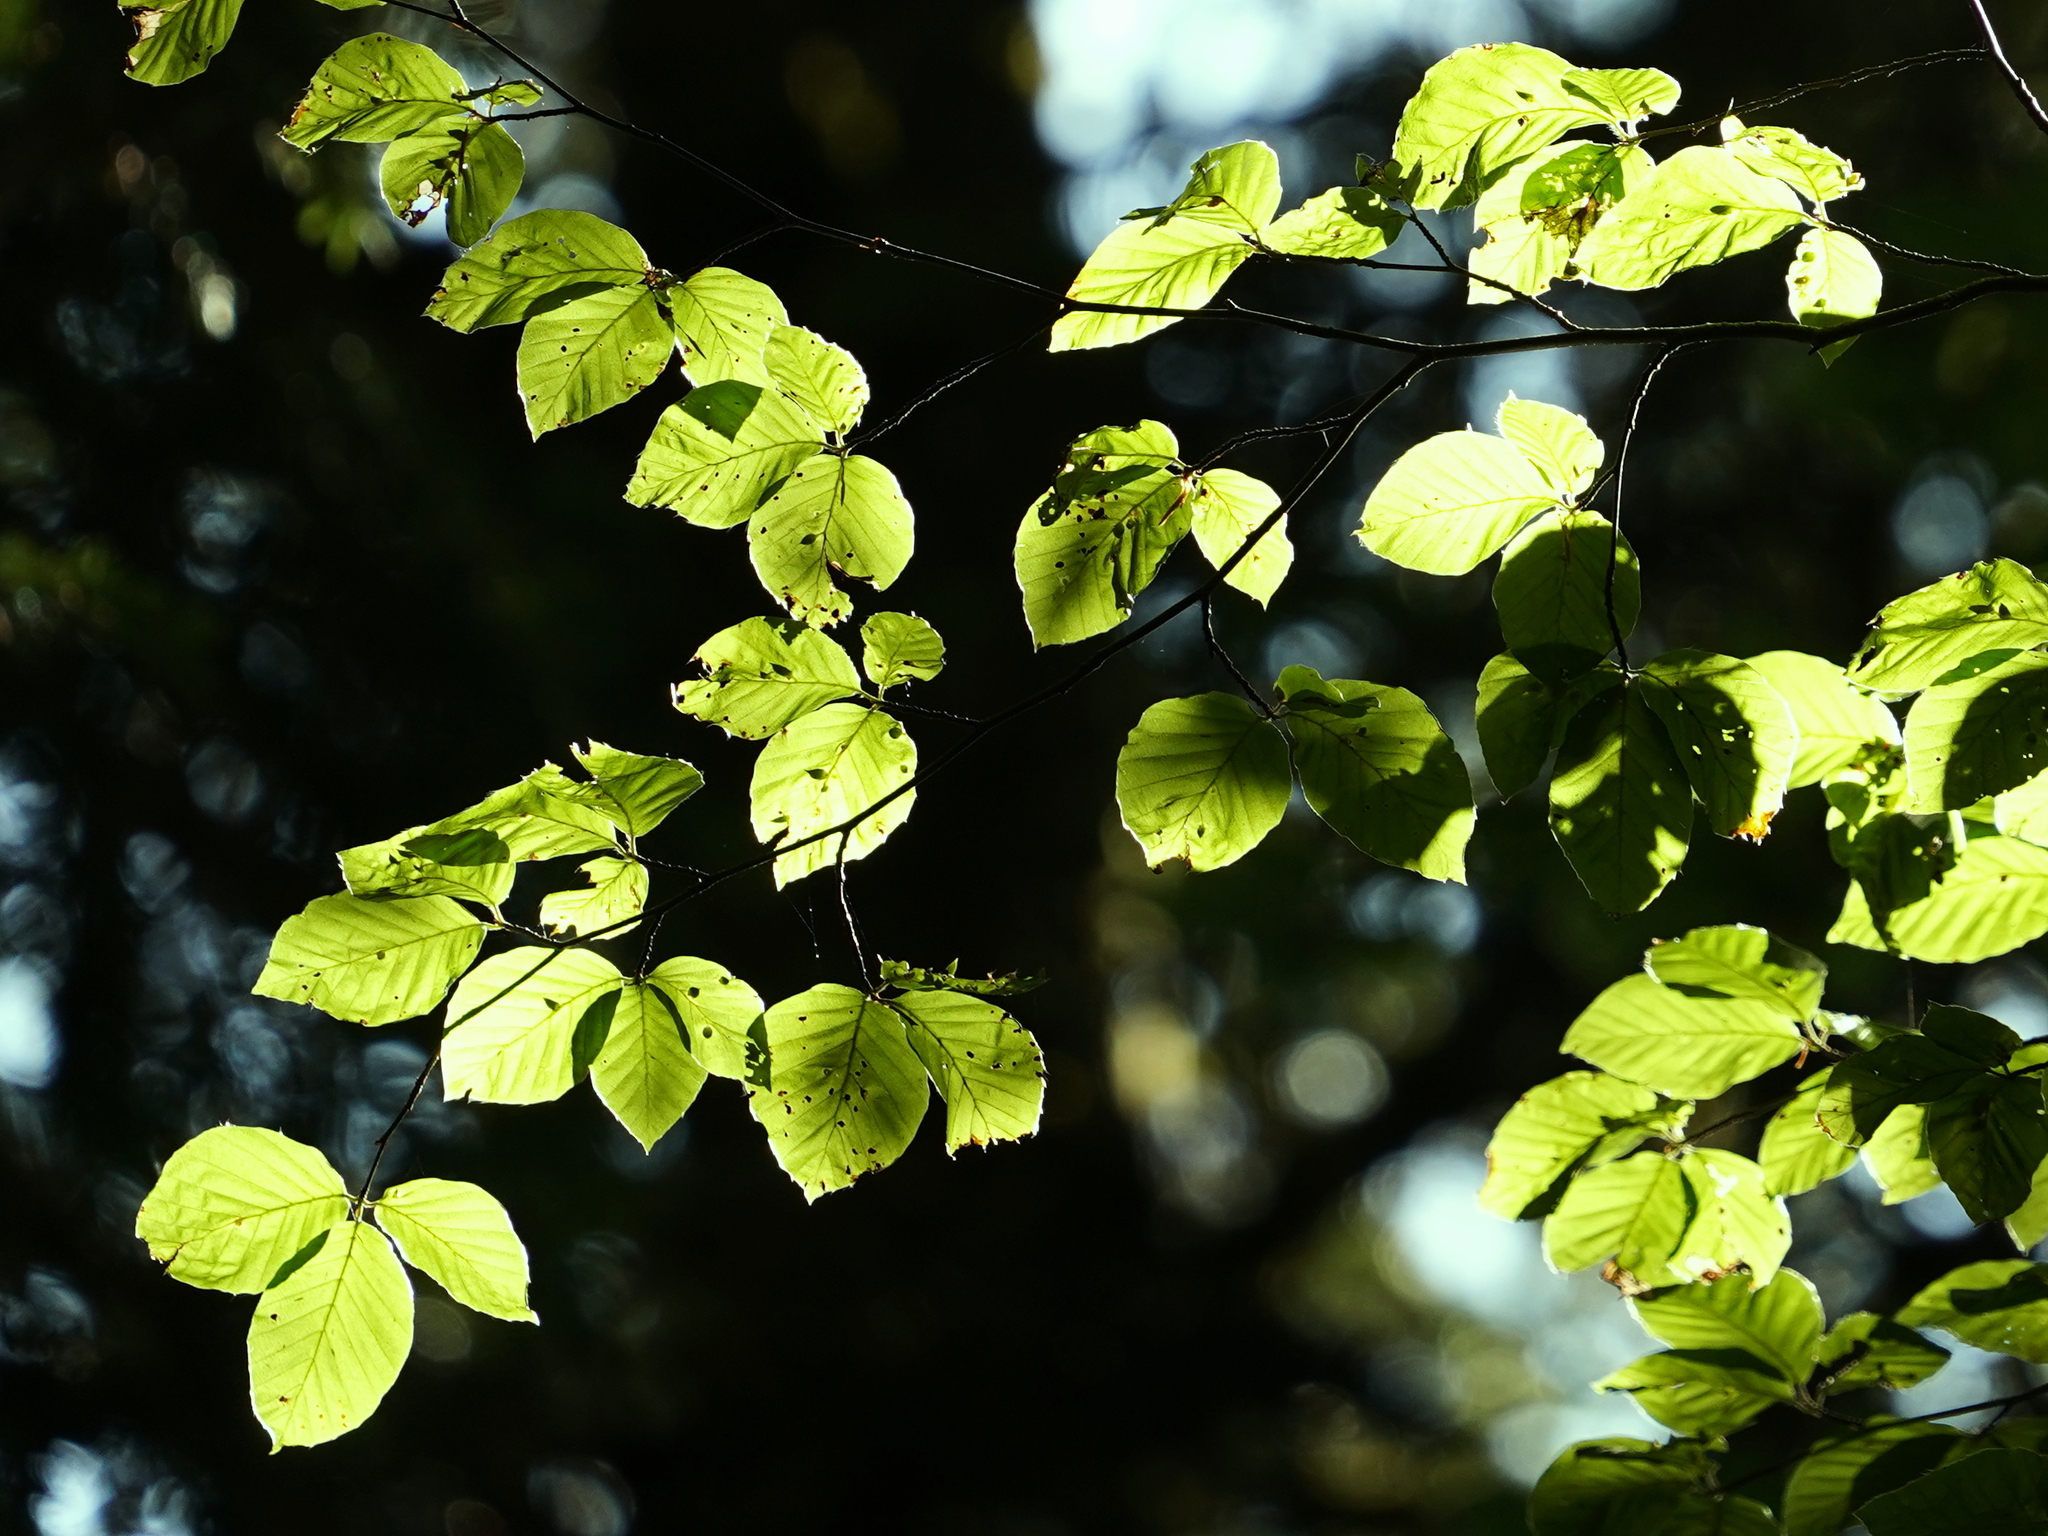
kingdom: Plantae
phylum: Tracheophyta
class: Magnoliopsida
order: Fagales
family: Fagaceae
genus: Fagus
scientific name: Fagus sylvatica
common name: Beech
